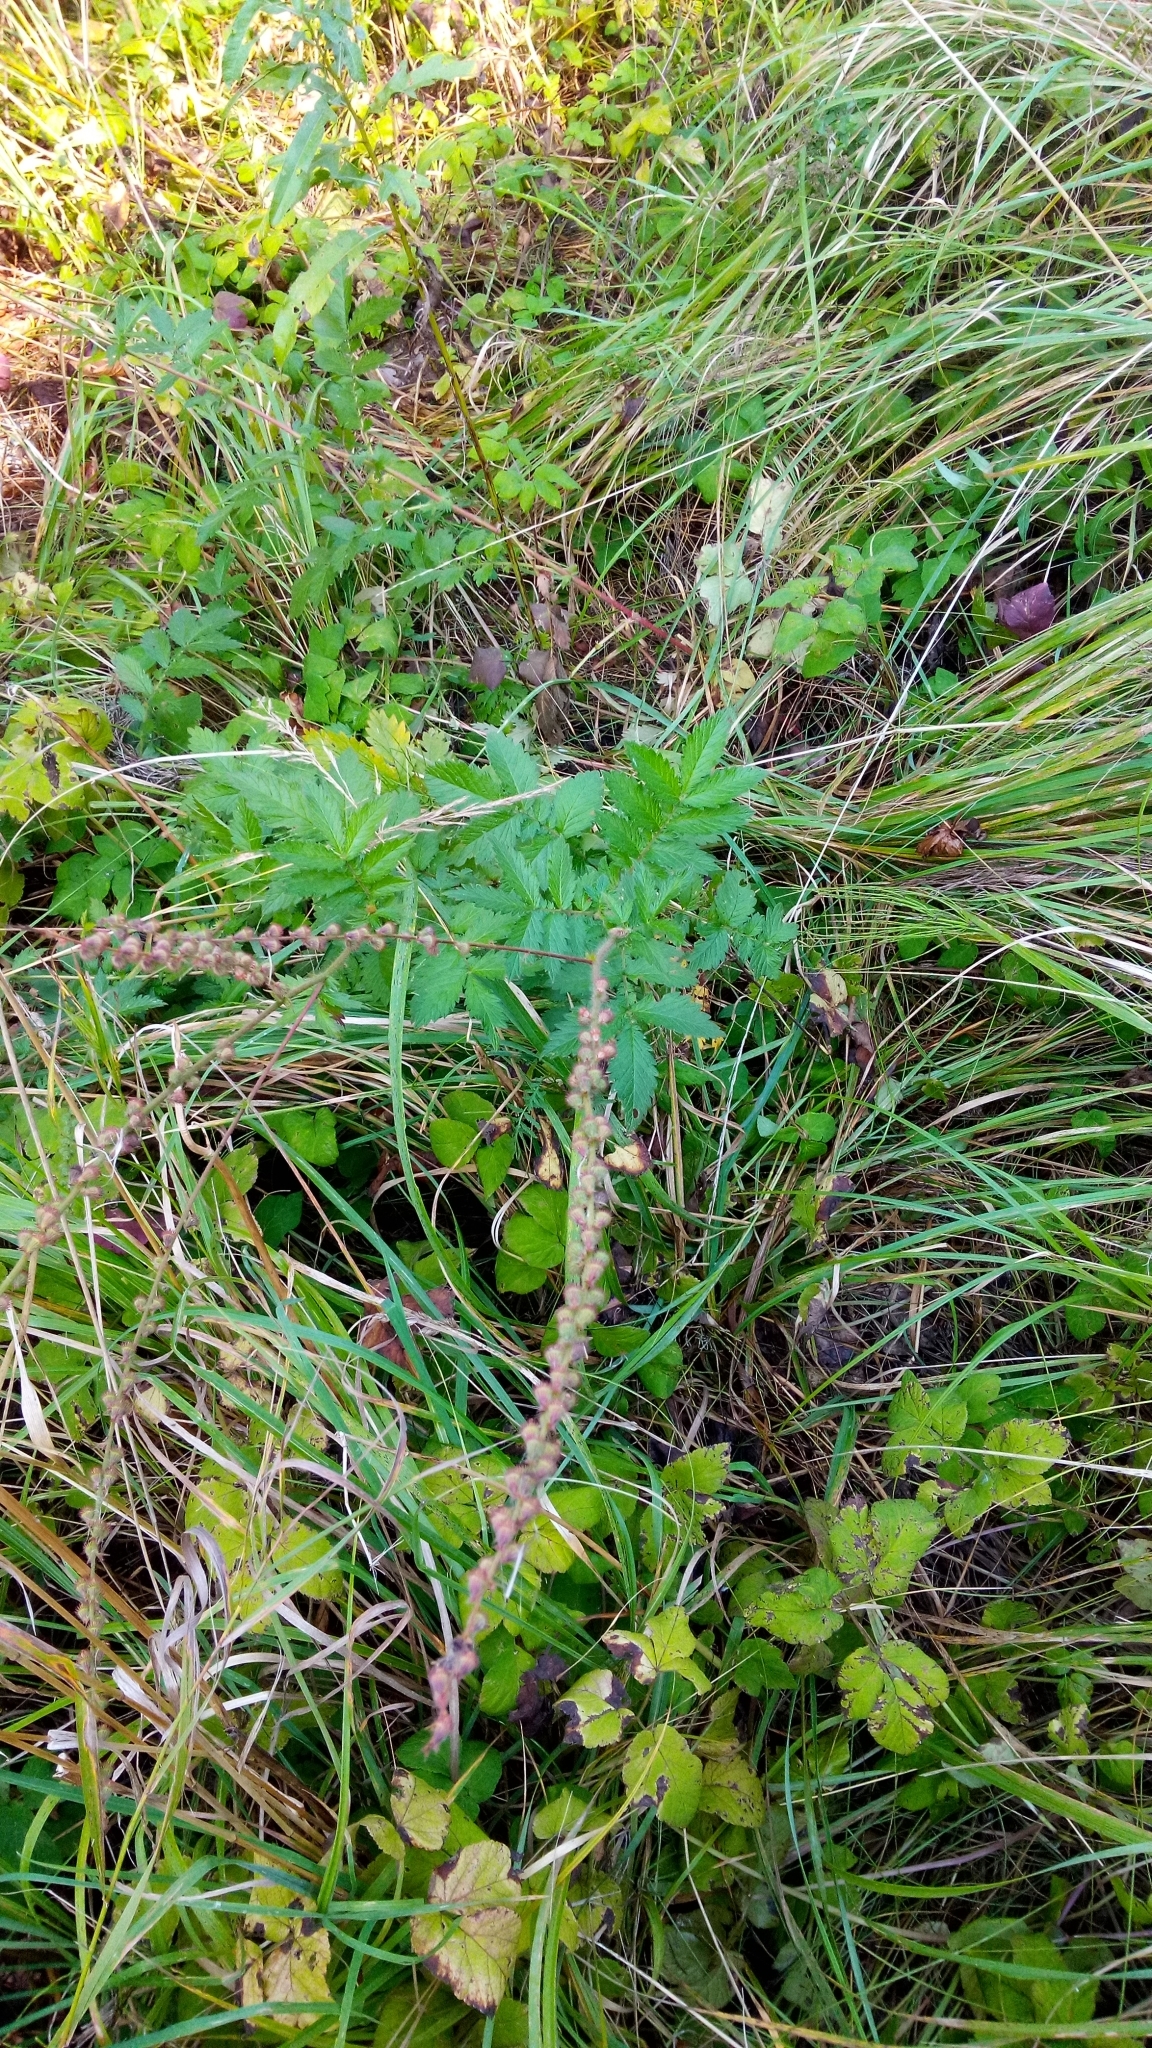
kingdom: Plantae
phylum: Tracheophyta
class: Magnoliopsida
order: Rosales
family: Rosaceae
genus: Agrimonia
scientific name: Agrimonia eupatoria
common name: Agrimony
